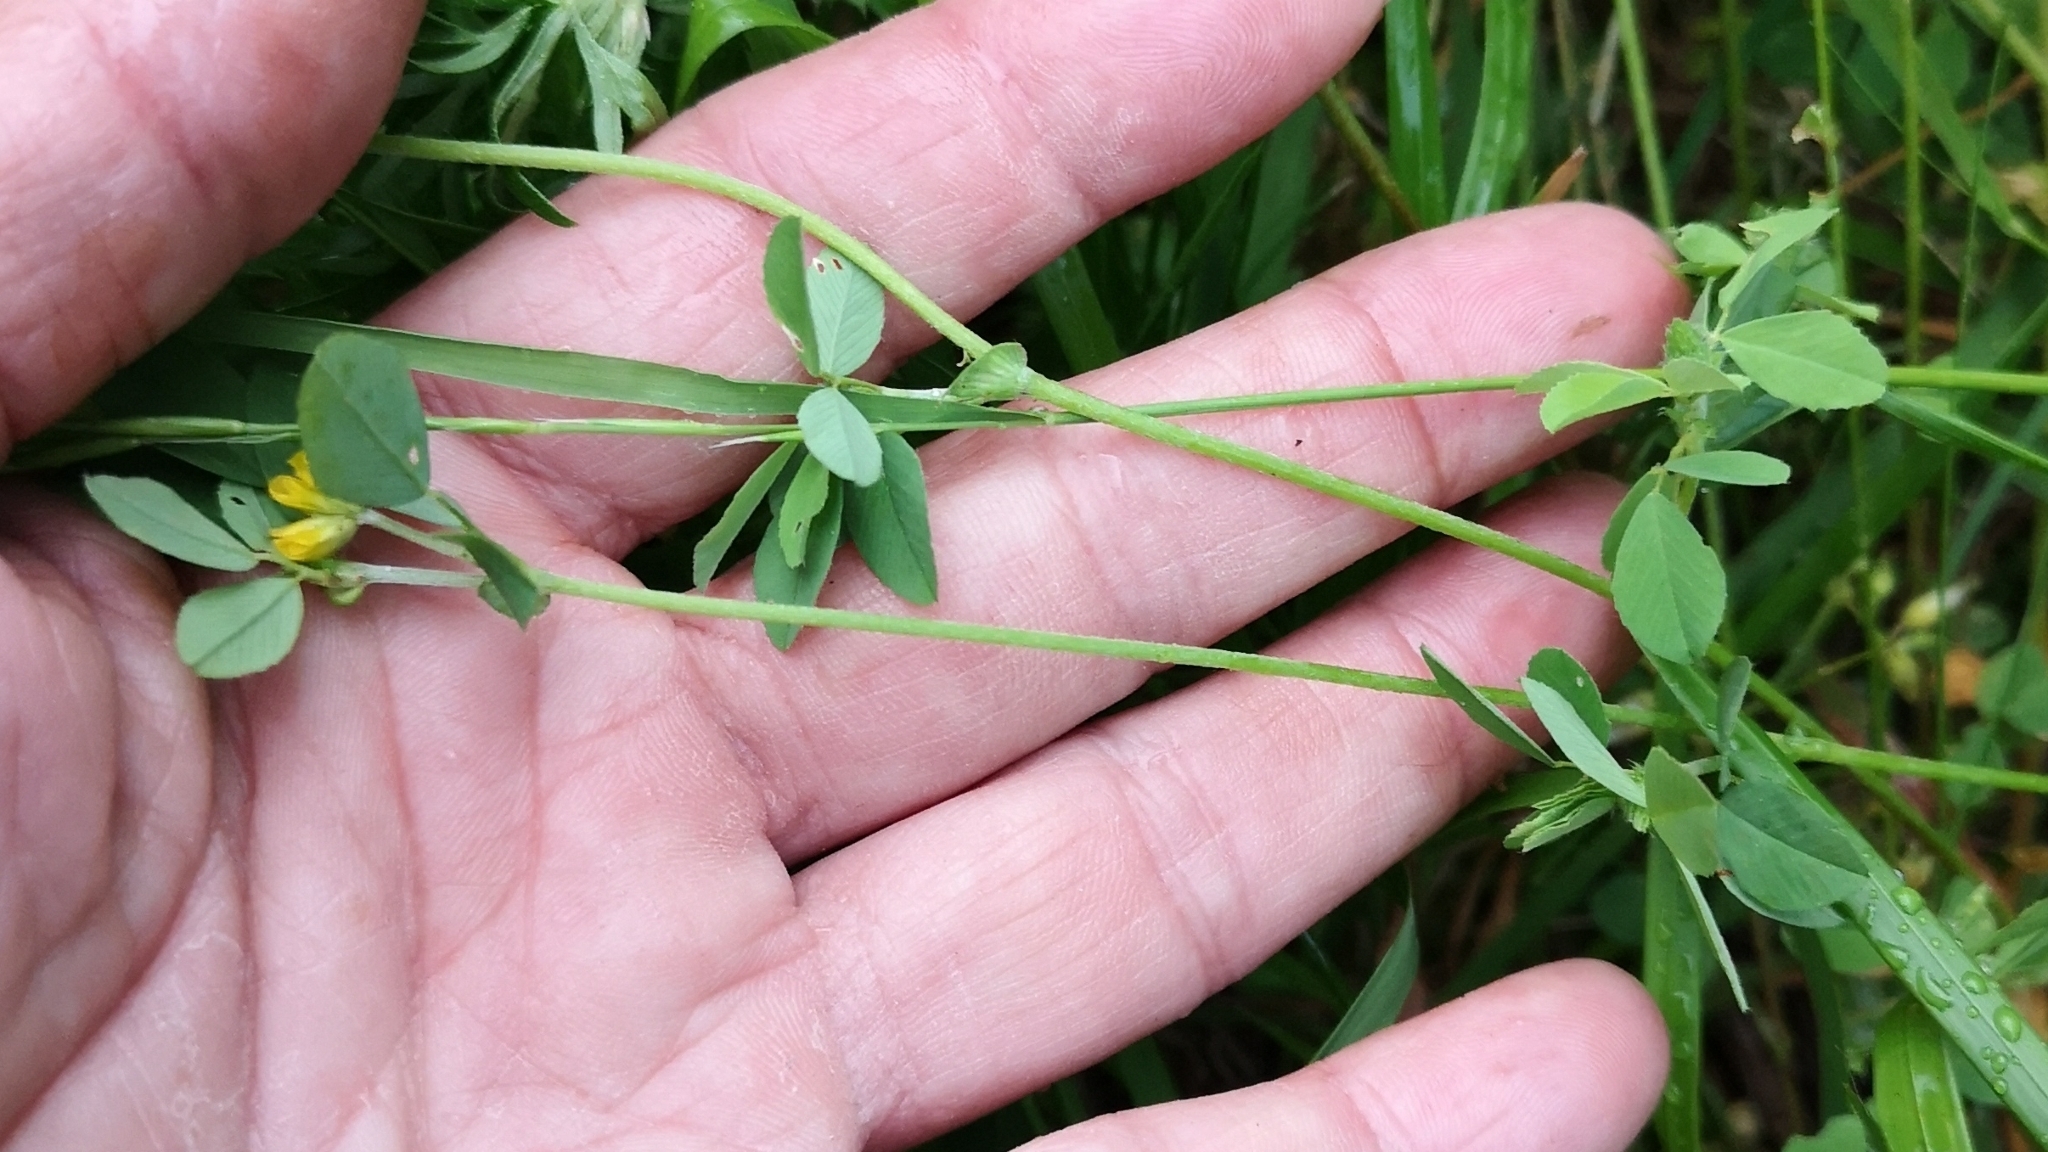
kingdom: Plantae
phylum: Tracheophyta
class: Magnoliopsida
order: Fabales
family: Fabaceae
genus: Trifolium
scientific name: Trifolium dubium
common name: Suckling clover
